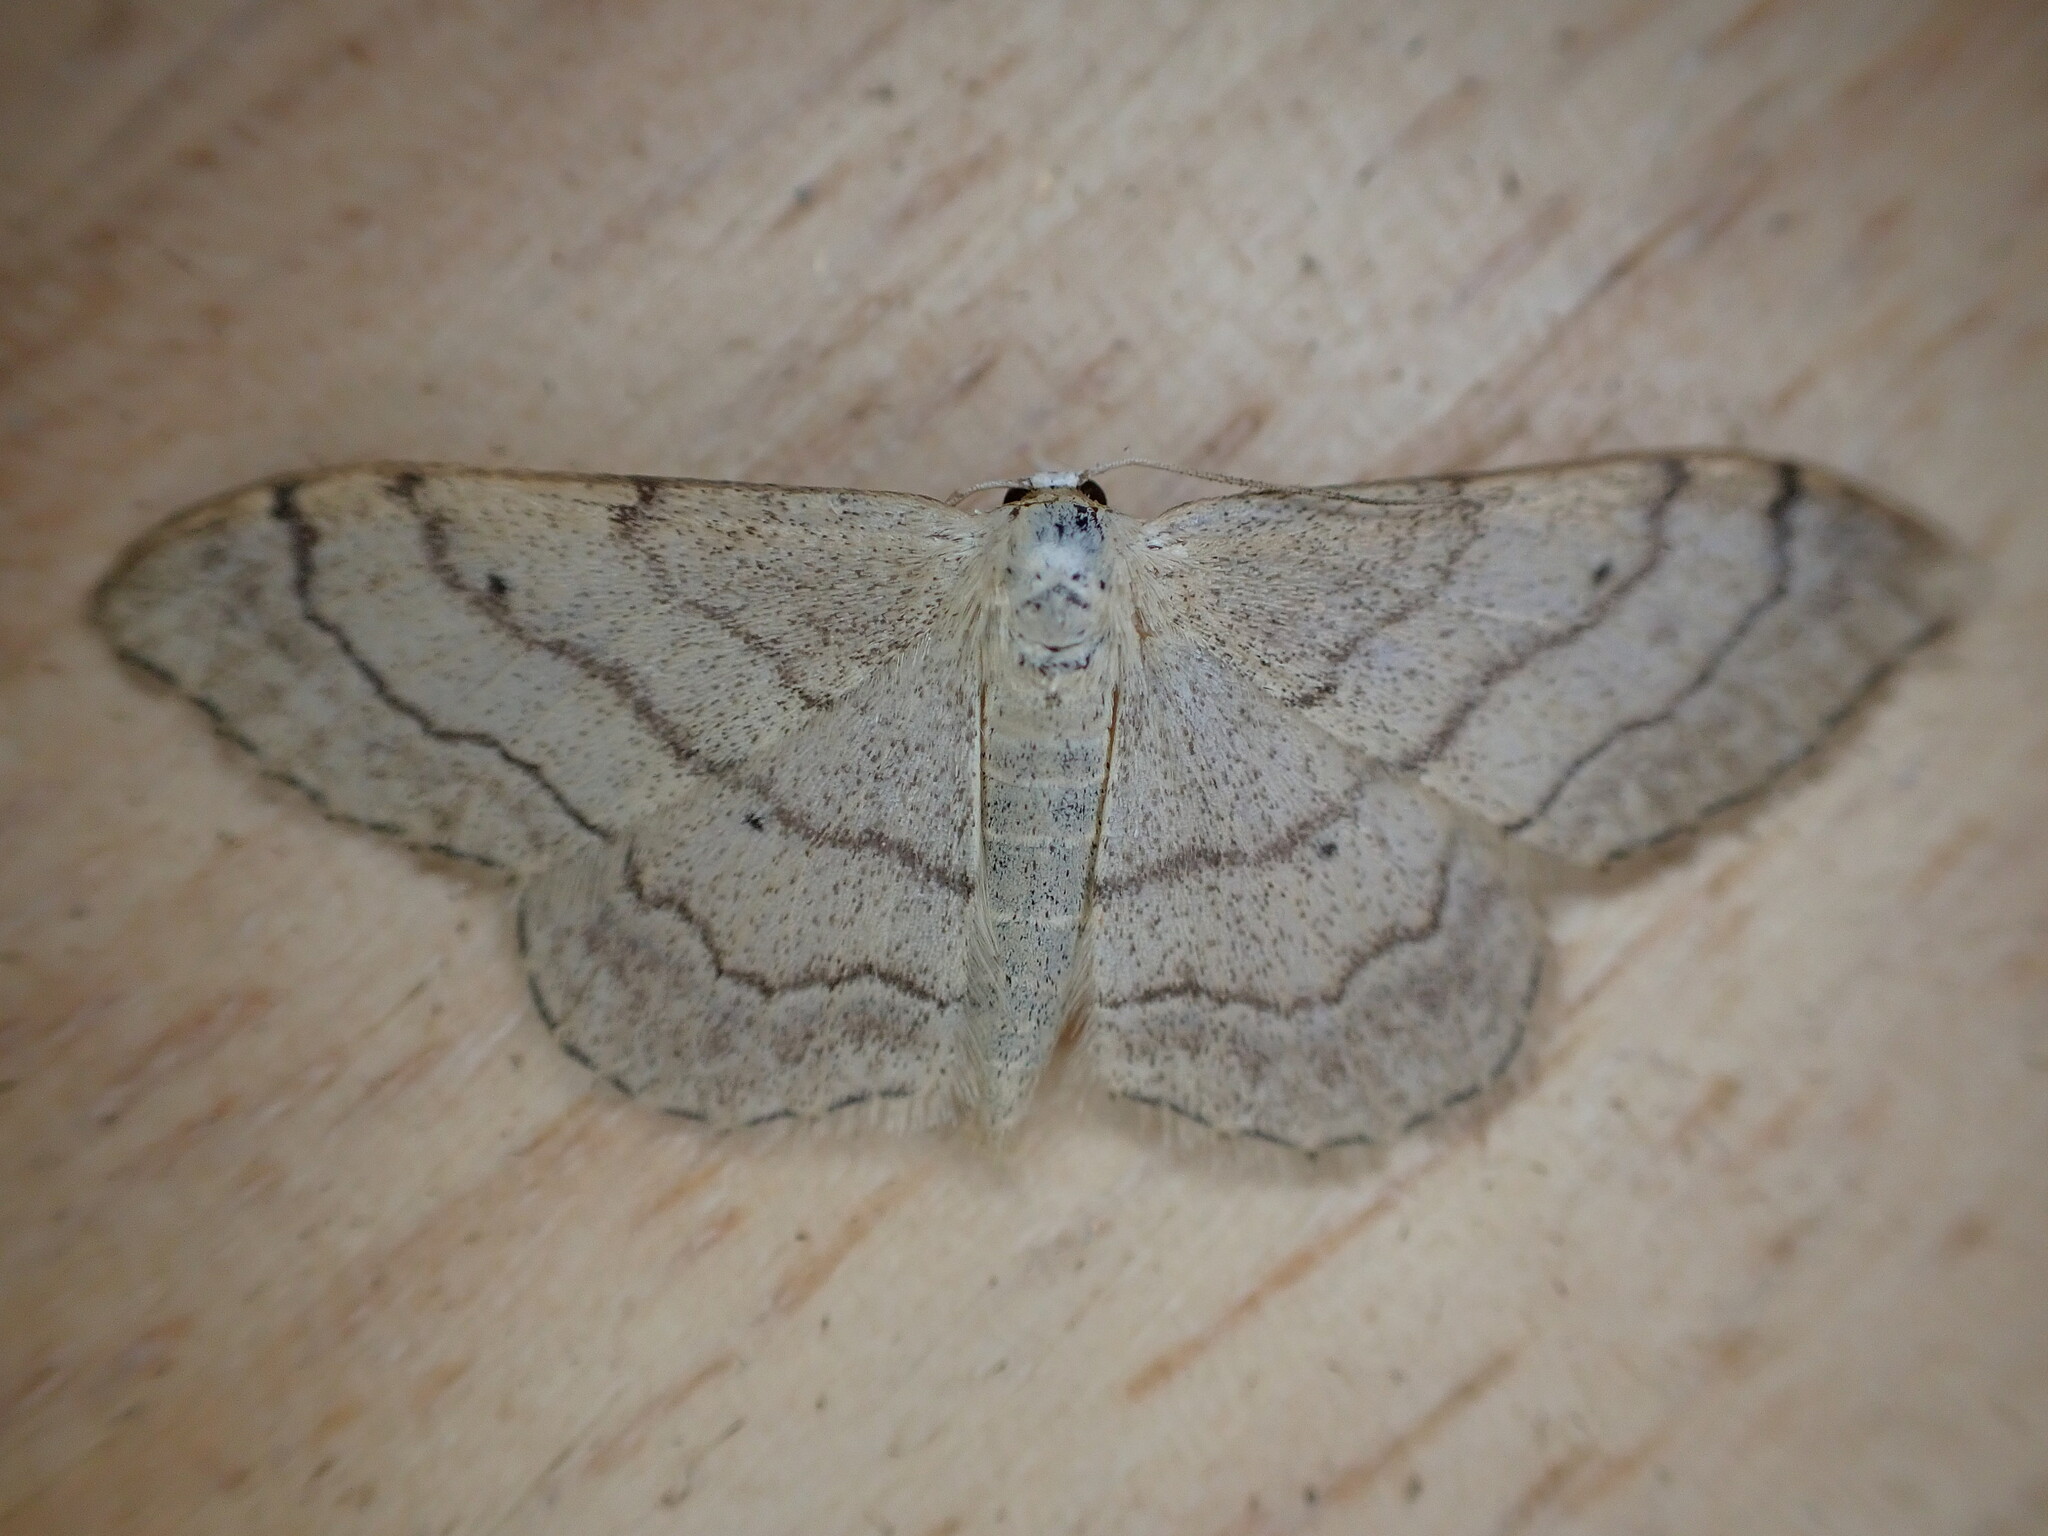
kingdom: Animalia
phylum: Arthropoda
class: Insecta
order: Lepidoptera
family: Geometridae
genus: Idaea
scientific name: Idaea aversata
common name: Riband wave
